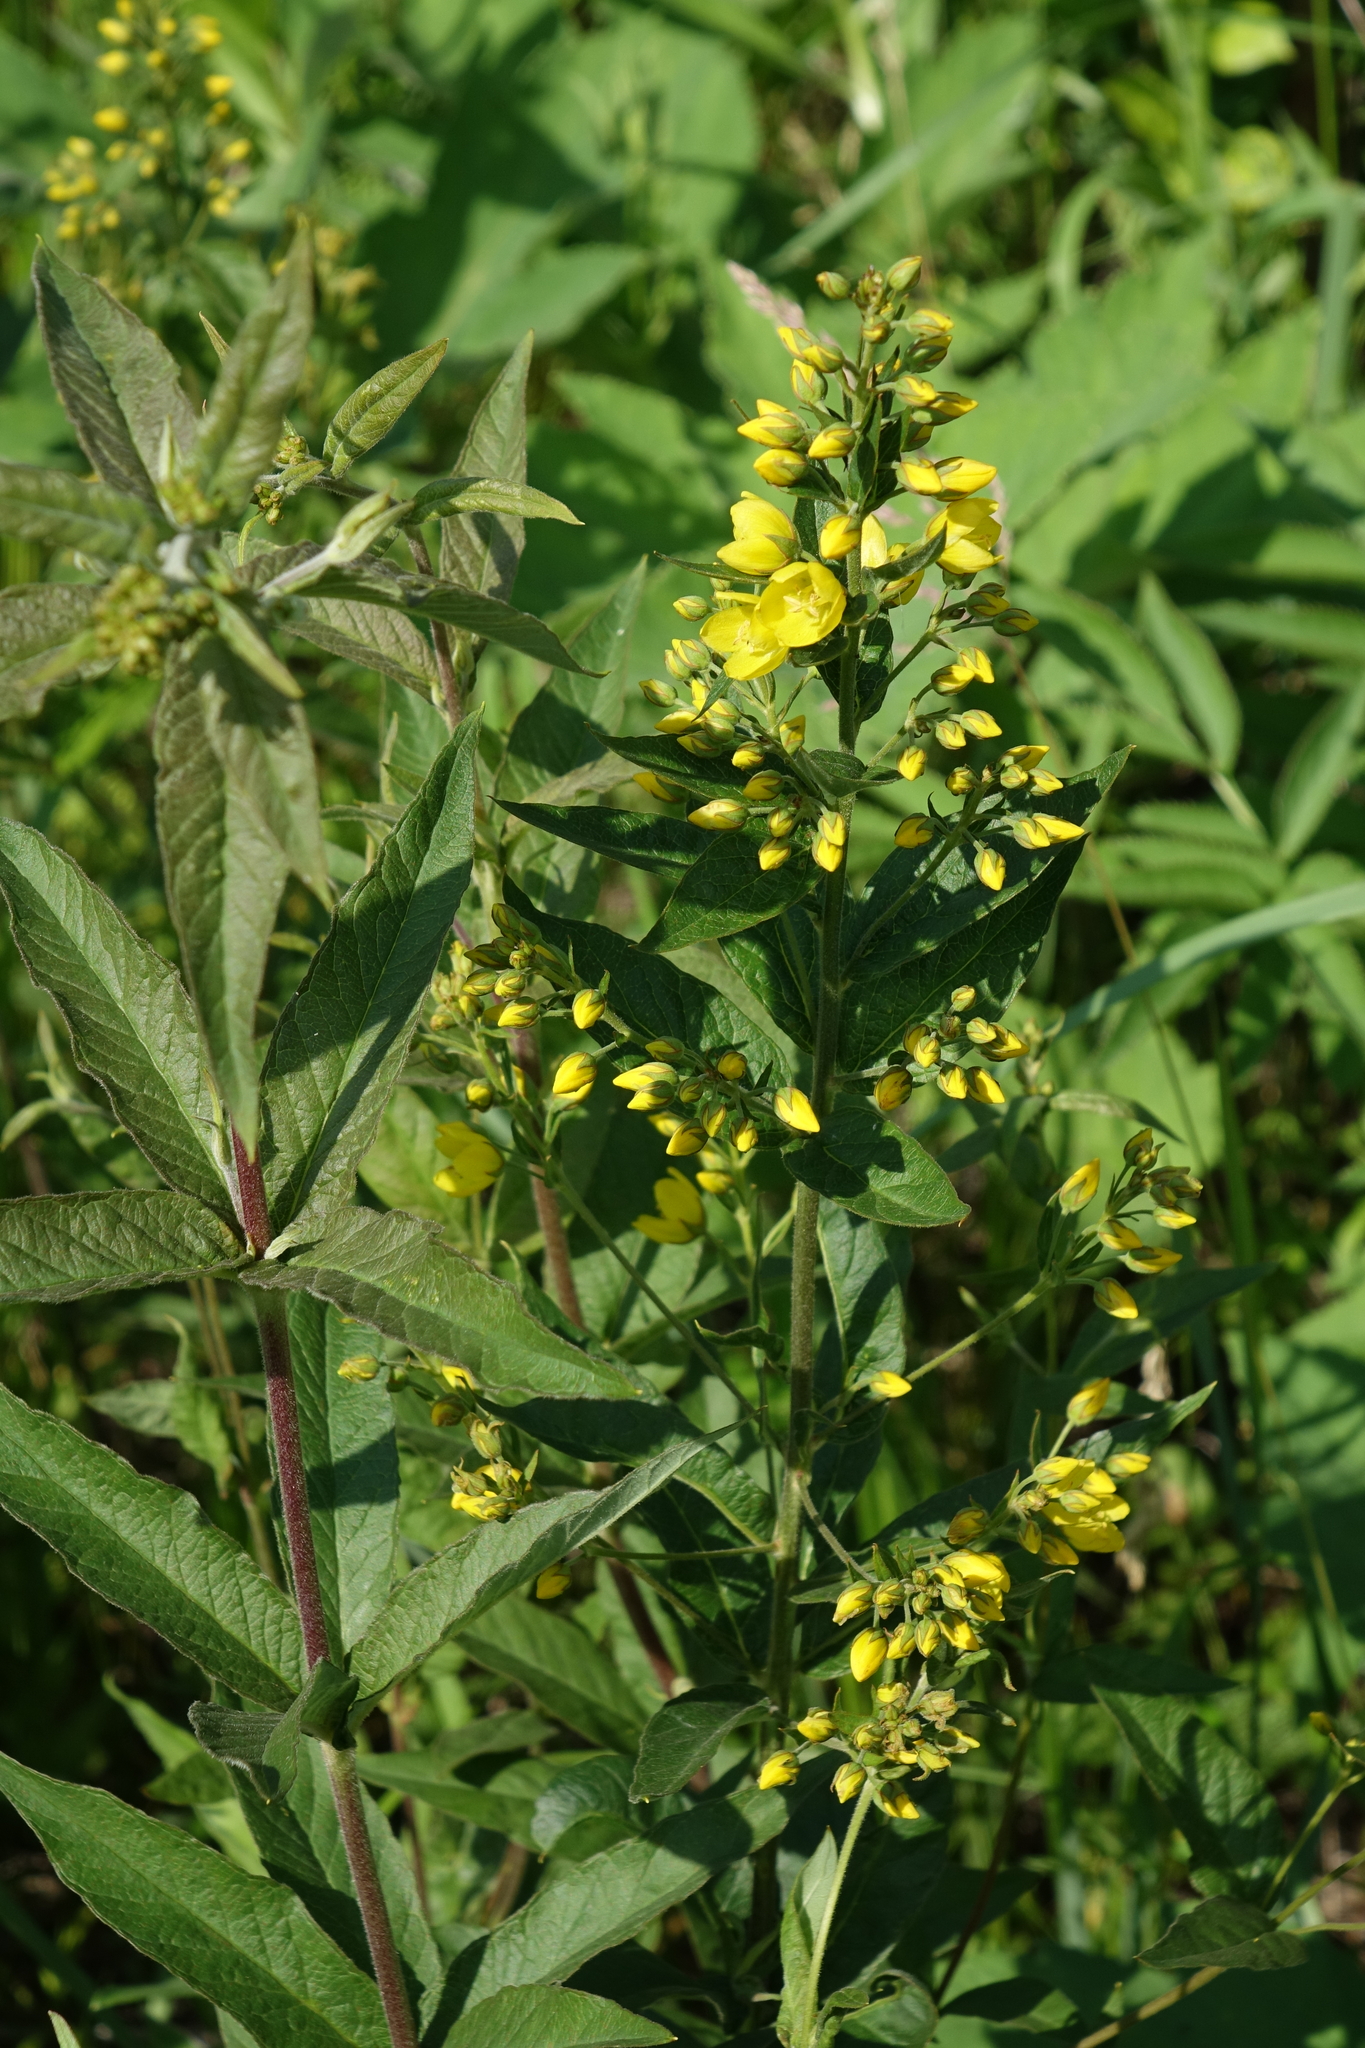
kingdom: Plantae
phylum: Tracheophyta
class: Magnoliopsida
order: Ericales
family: Primulaceae
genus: Lysimachia
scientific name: Lysimachia vulgaris
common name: Yellow loosestrife
